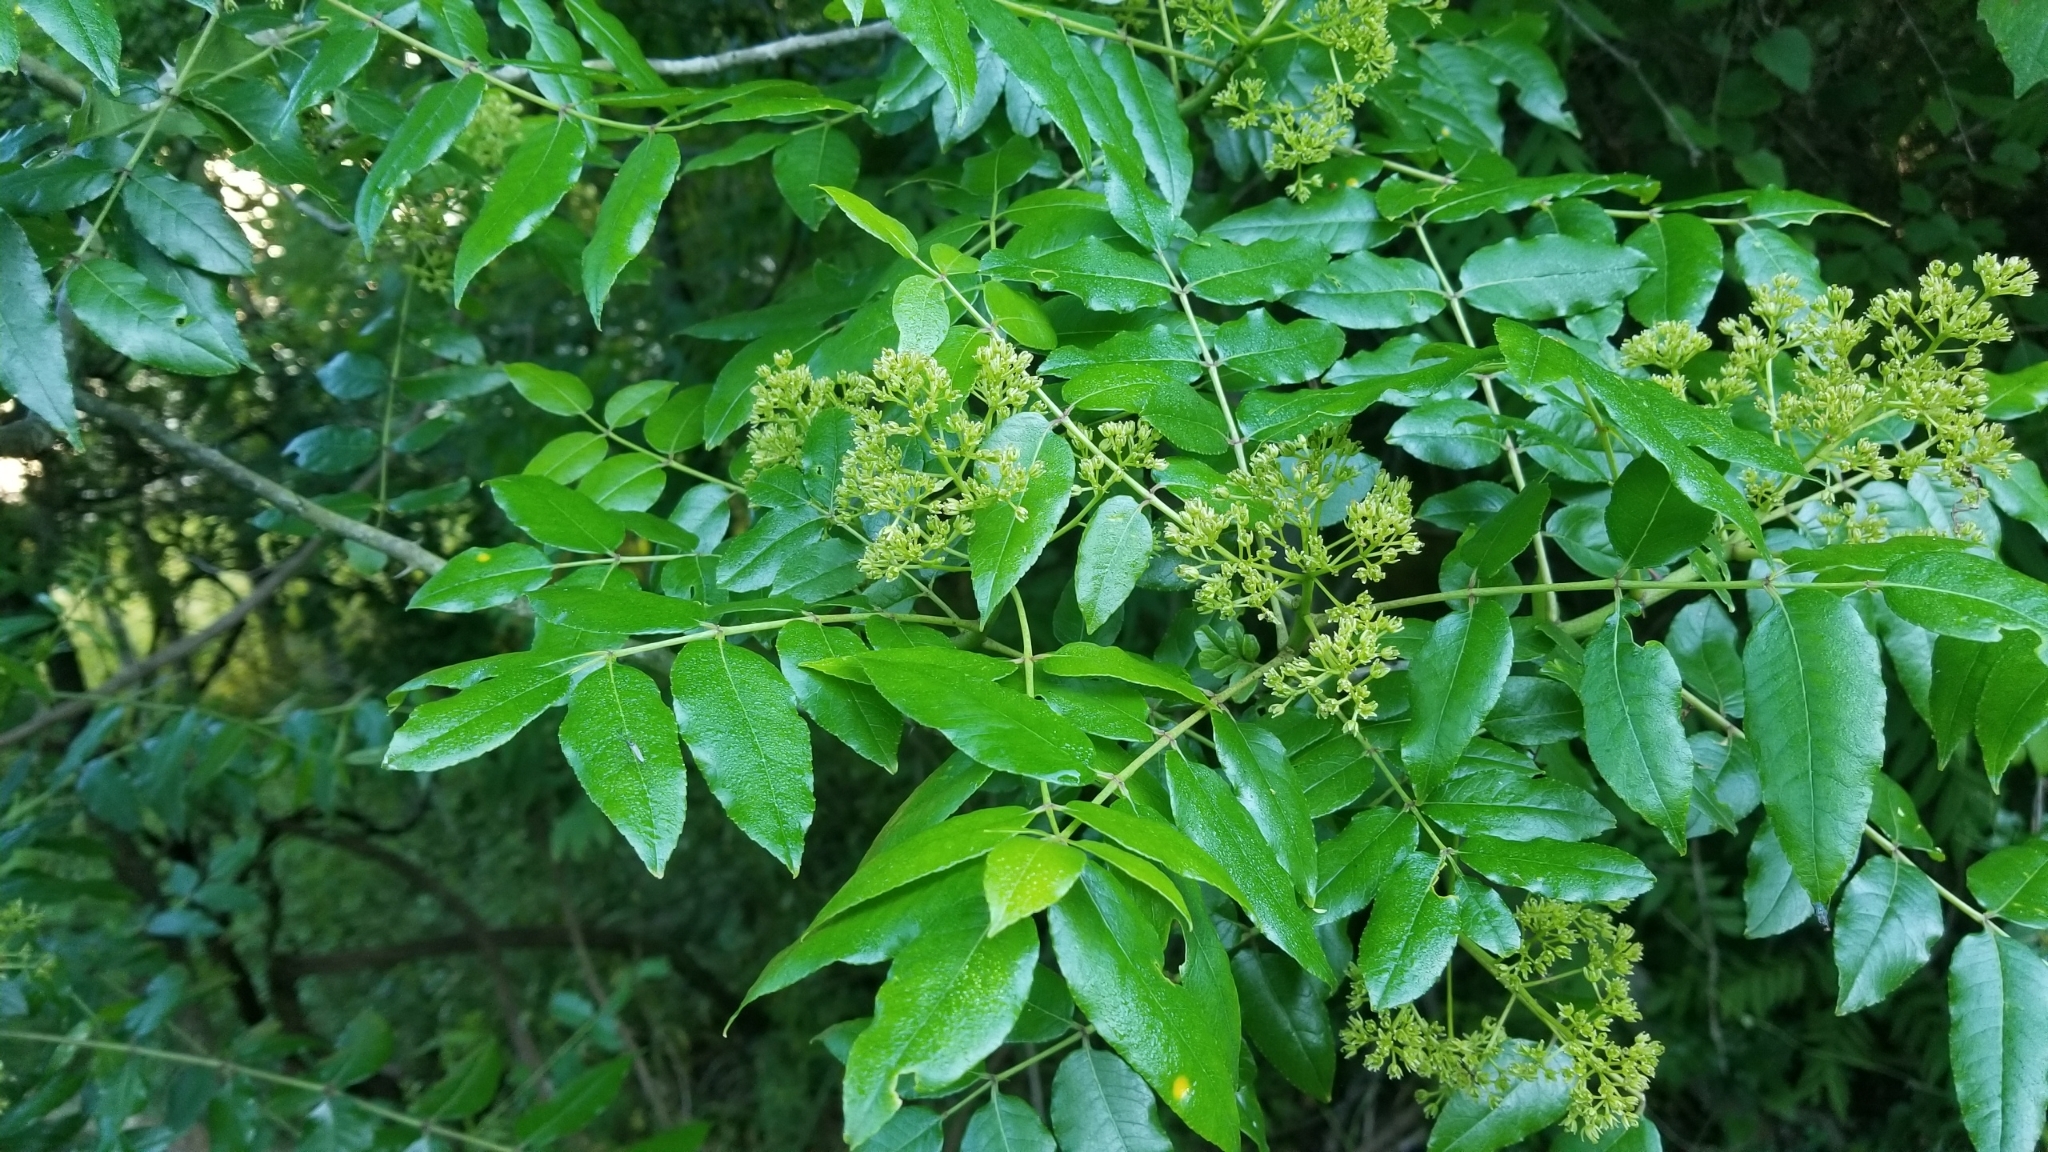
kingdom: Plantae
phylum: Tracheophyta
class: Magnoliopsida
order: Sapindales
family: Rutaceae
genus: Zanthoxylum
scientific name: Zanthoxylum clava-herculis
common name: Hercules'-club
